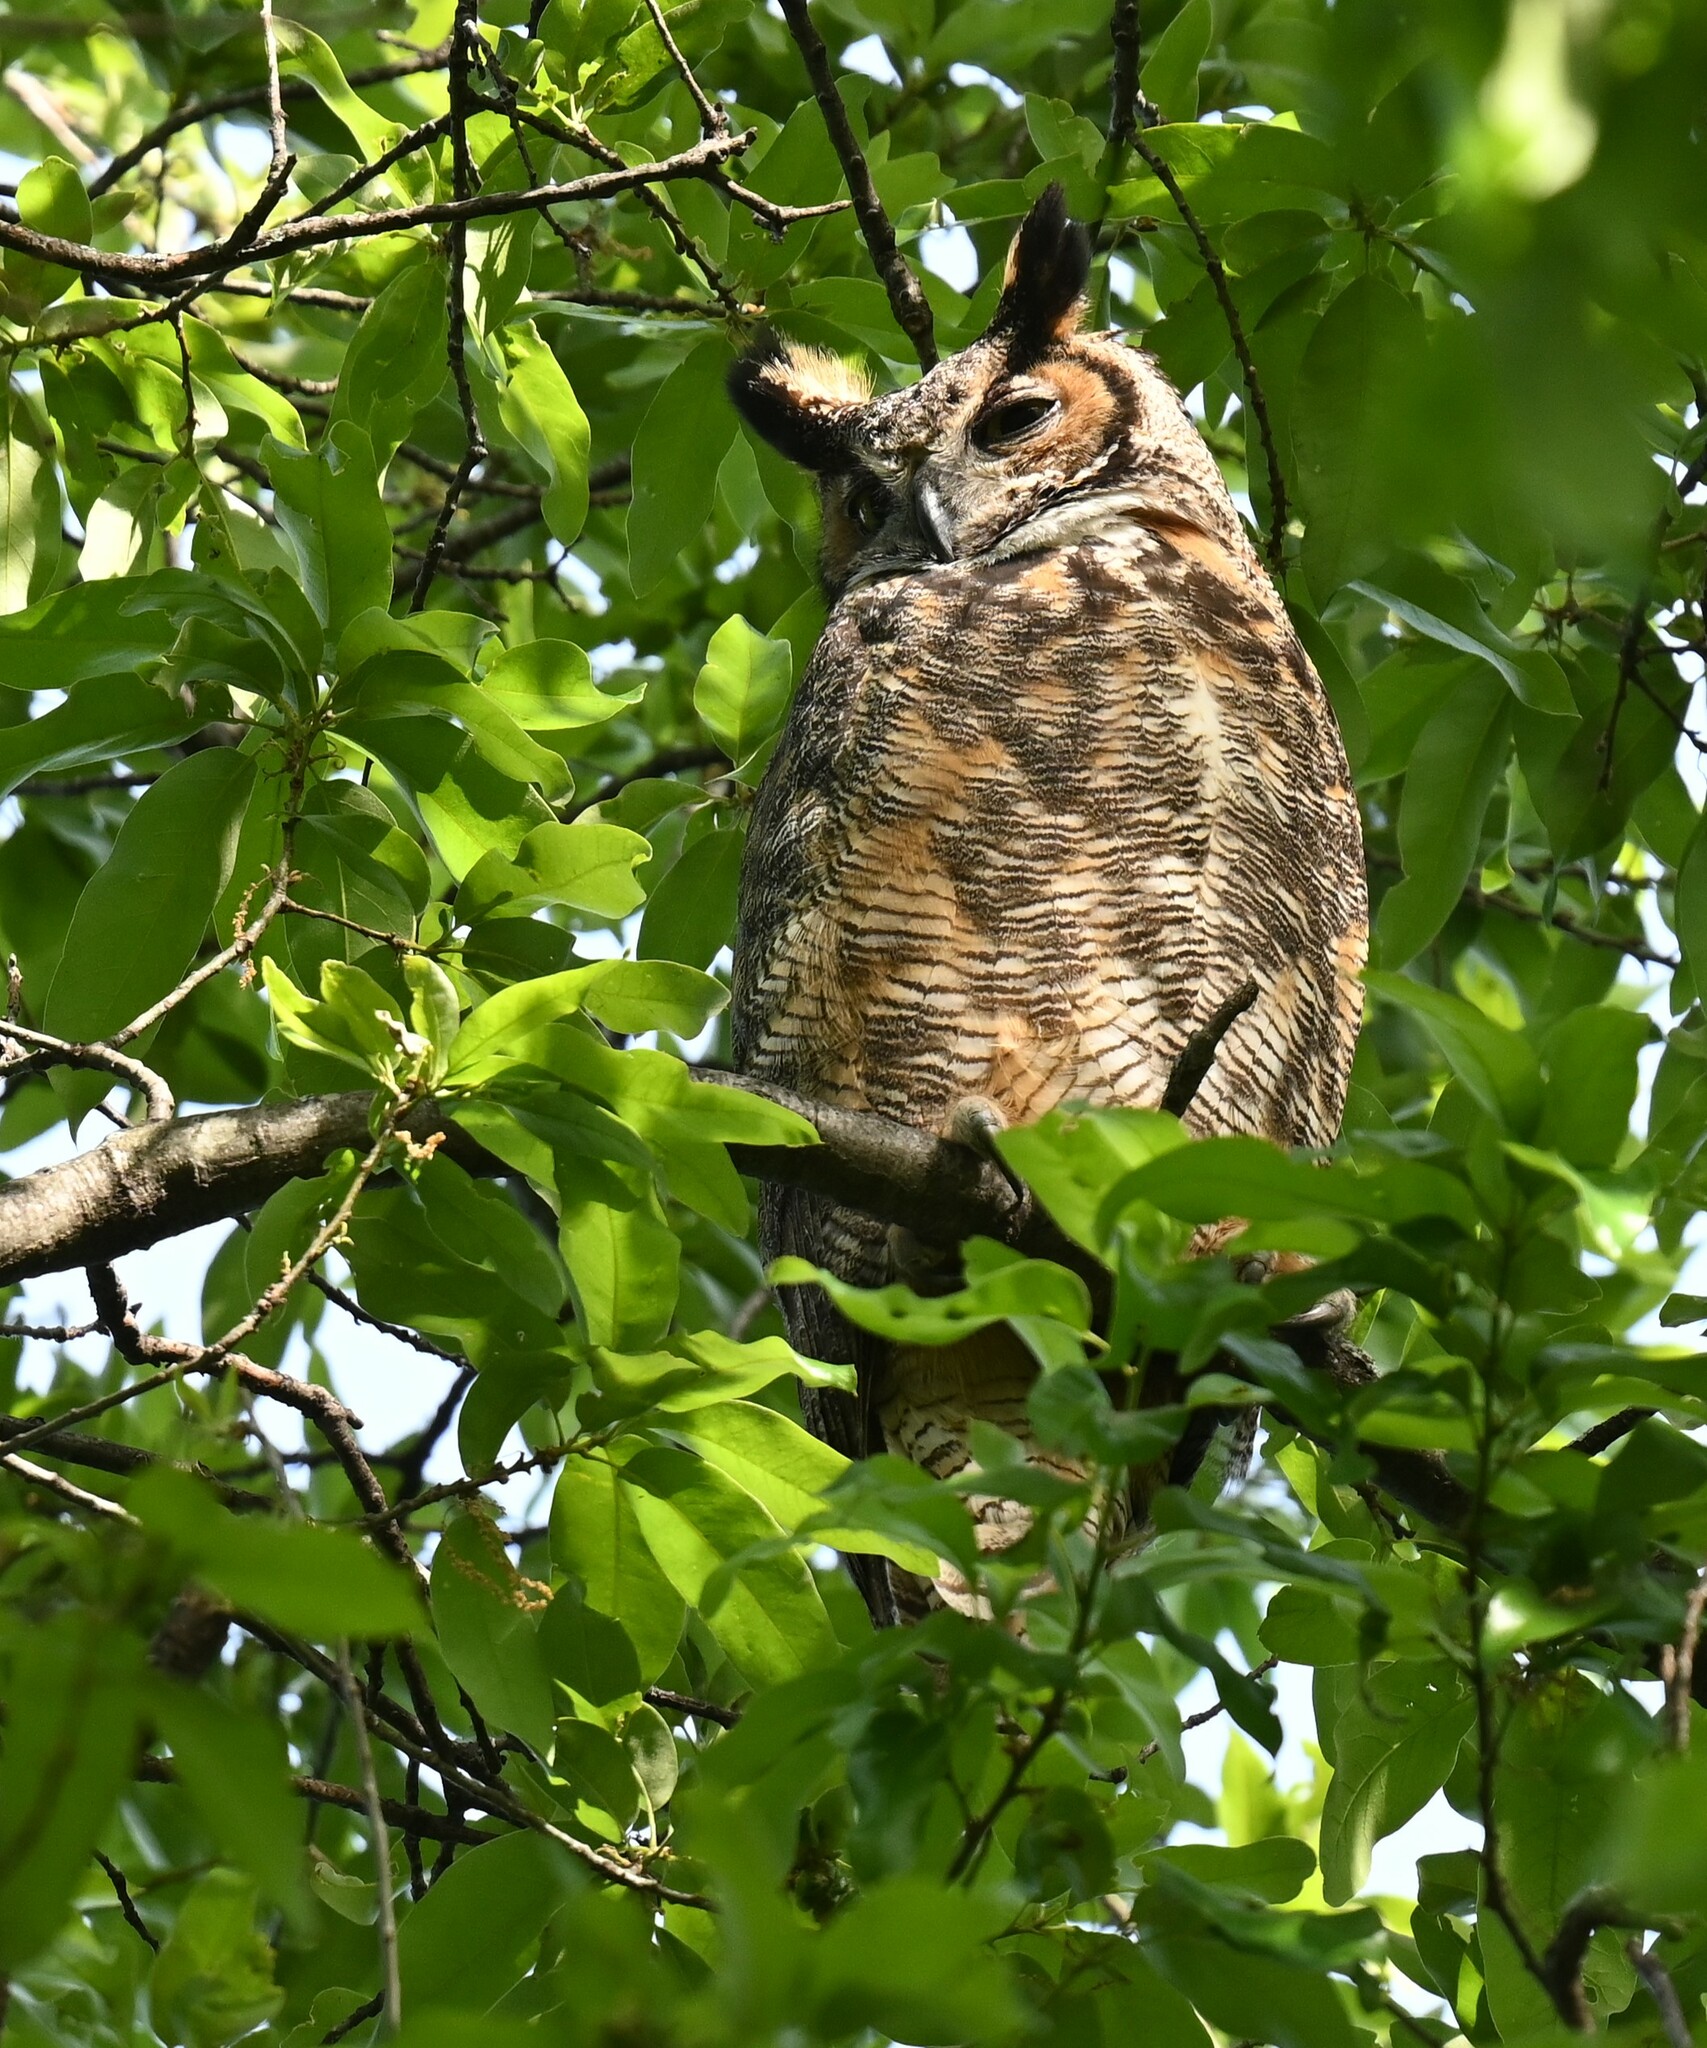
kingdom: Animalia
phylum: Chordata
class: Aves
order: Strigiformes
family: Strigidae
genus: Bubo
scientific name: Bubo virginianus
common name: Great horned owl
